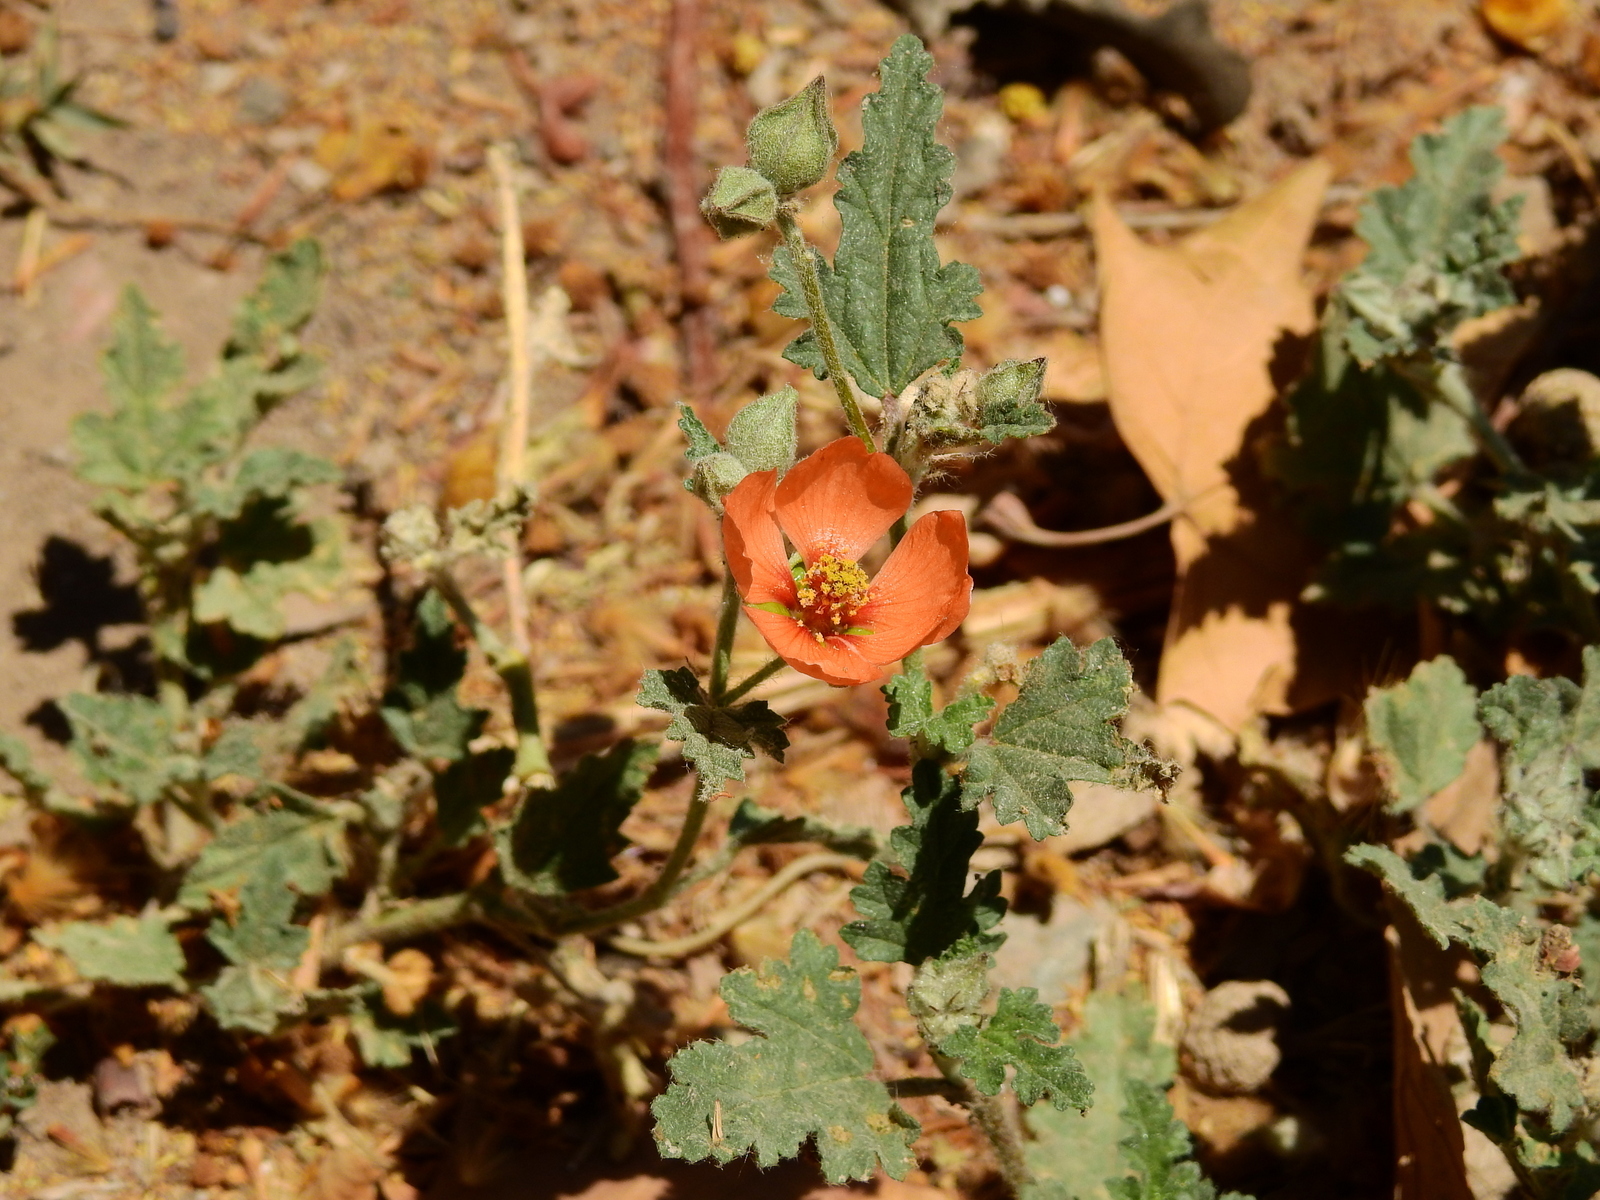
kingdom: Plantae
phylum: Tracheophyta
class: Magnoliopsida
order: Malvales
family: Malvaceae
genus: Sphaeralcea
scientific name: Sphaeralcea miniata
